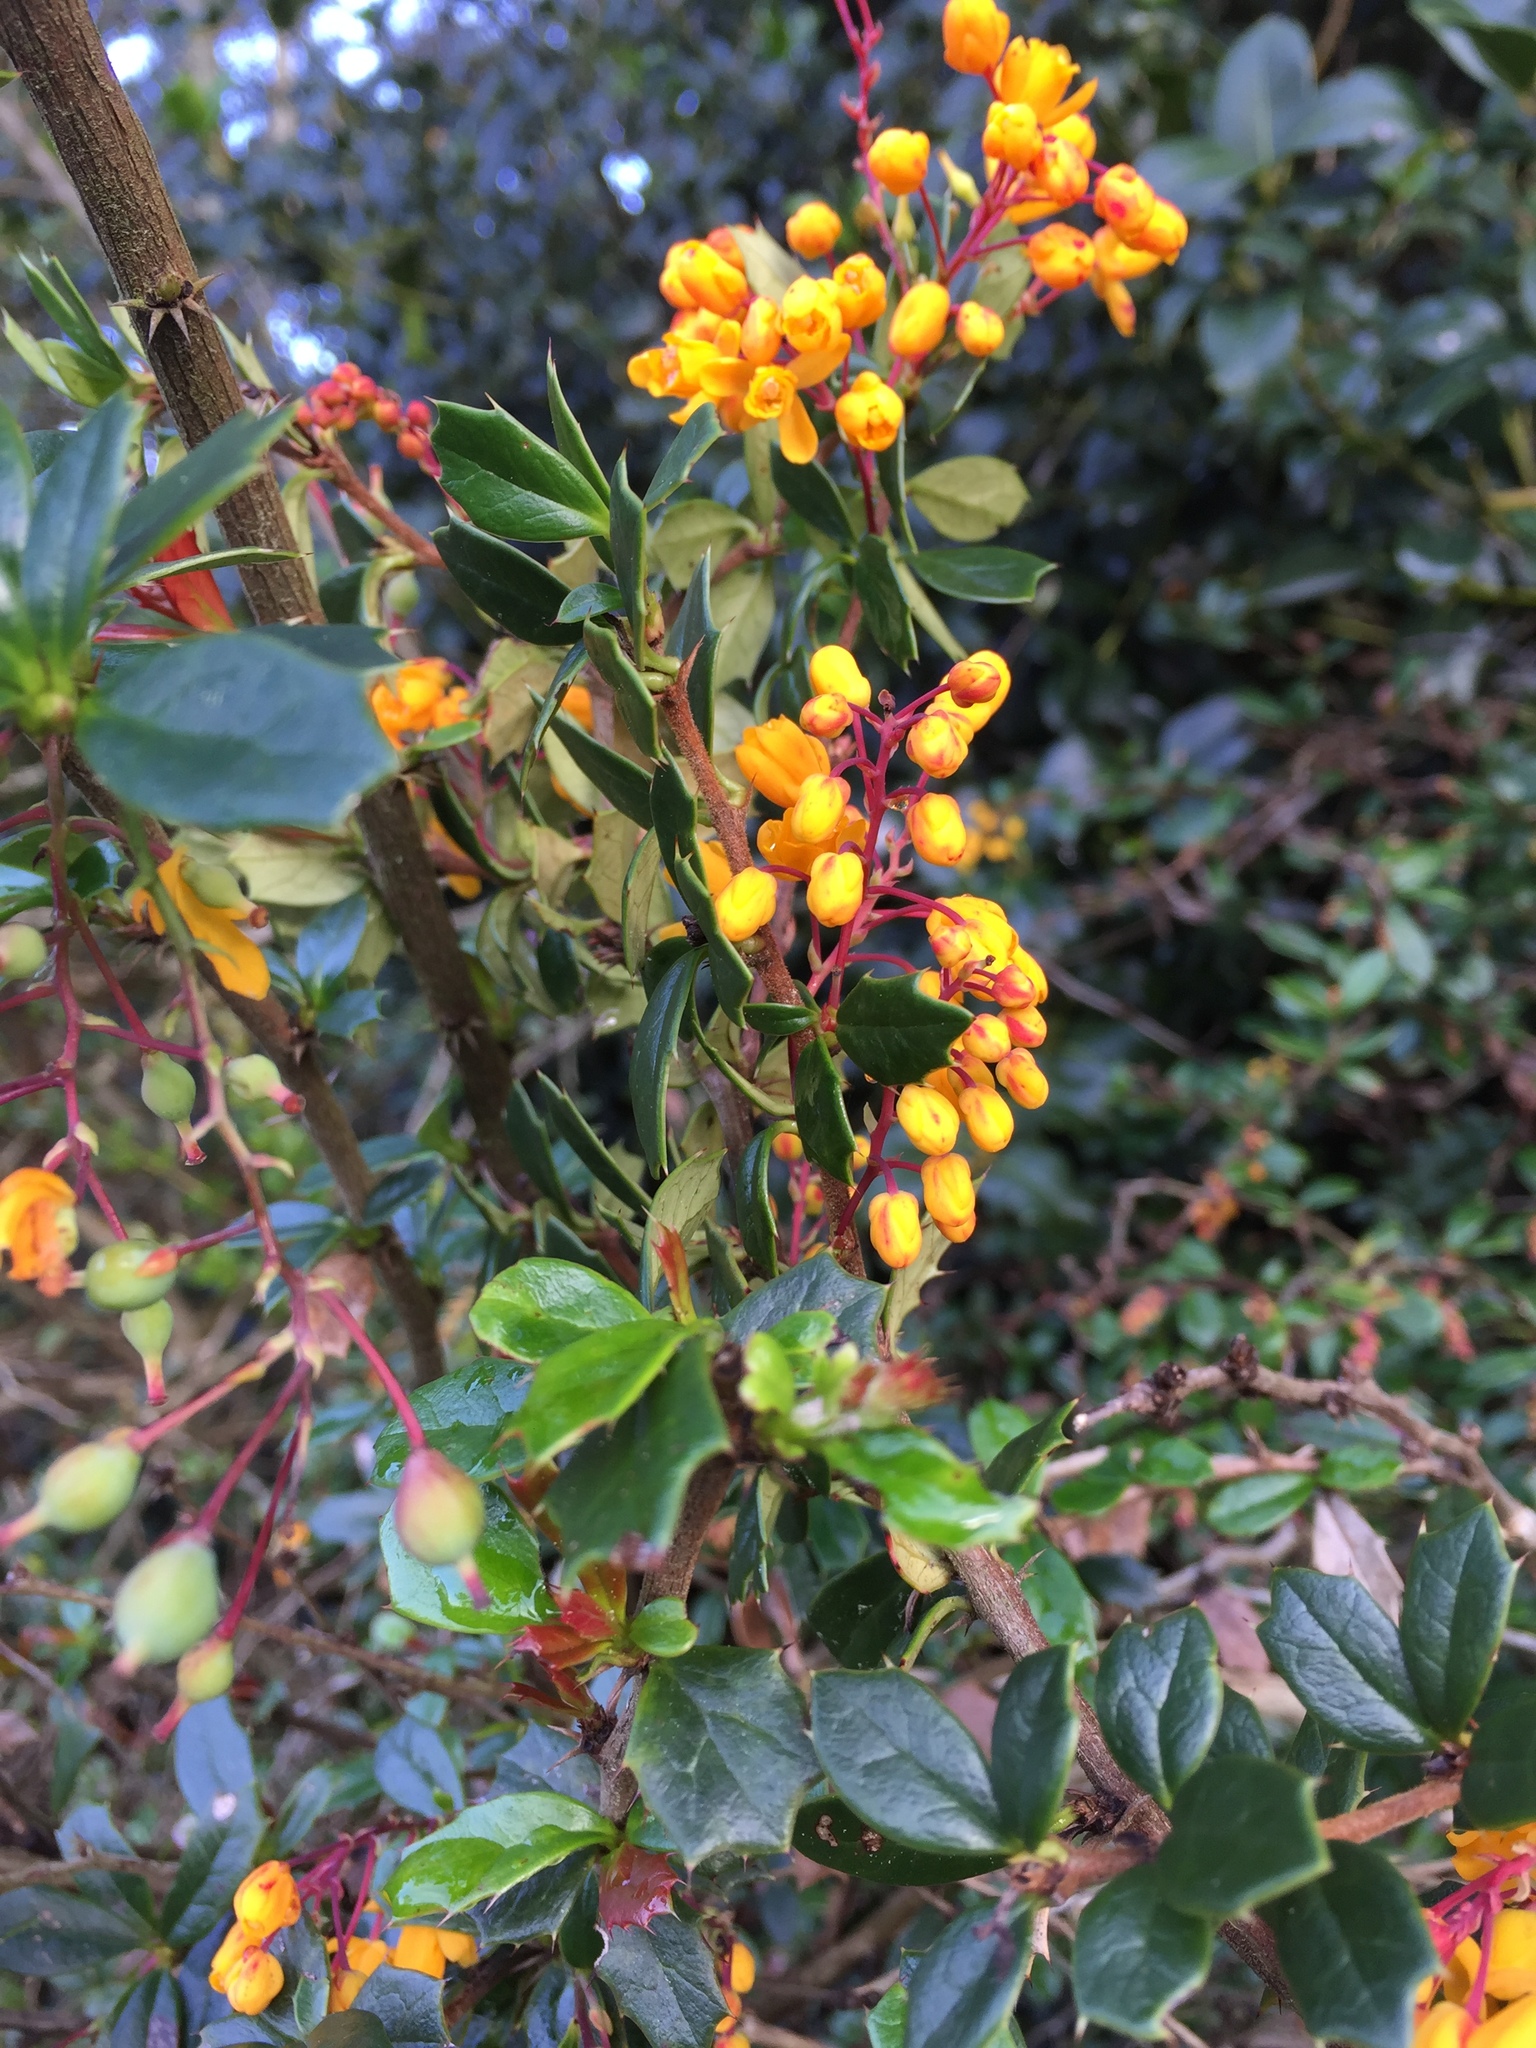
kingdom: Plantae
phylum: Tracheophyta
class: Magnoliopsida
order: Ranunculales
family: Berberidaceae
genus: Berberis
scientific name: Berberis darwinii
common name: Darwin's barberry
